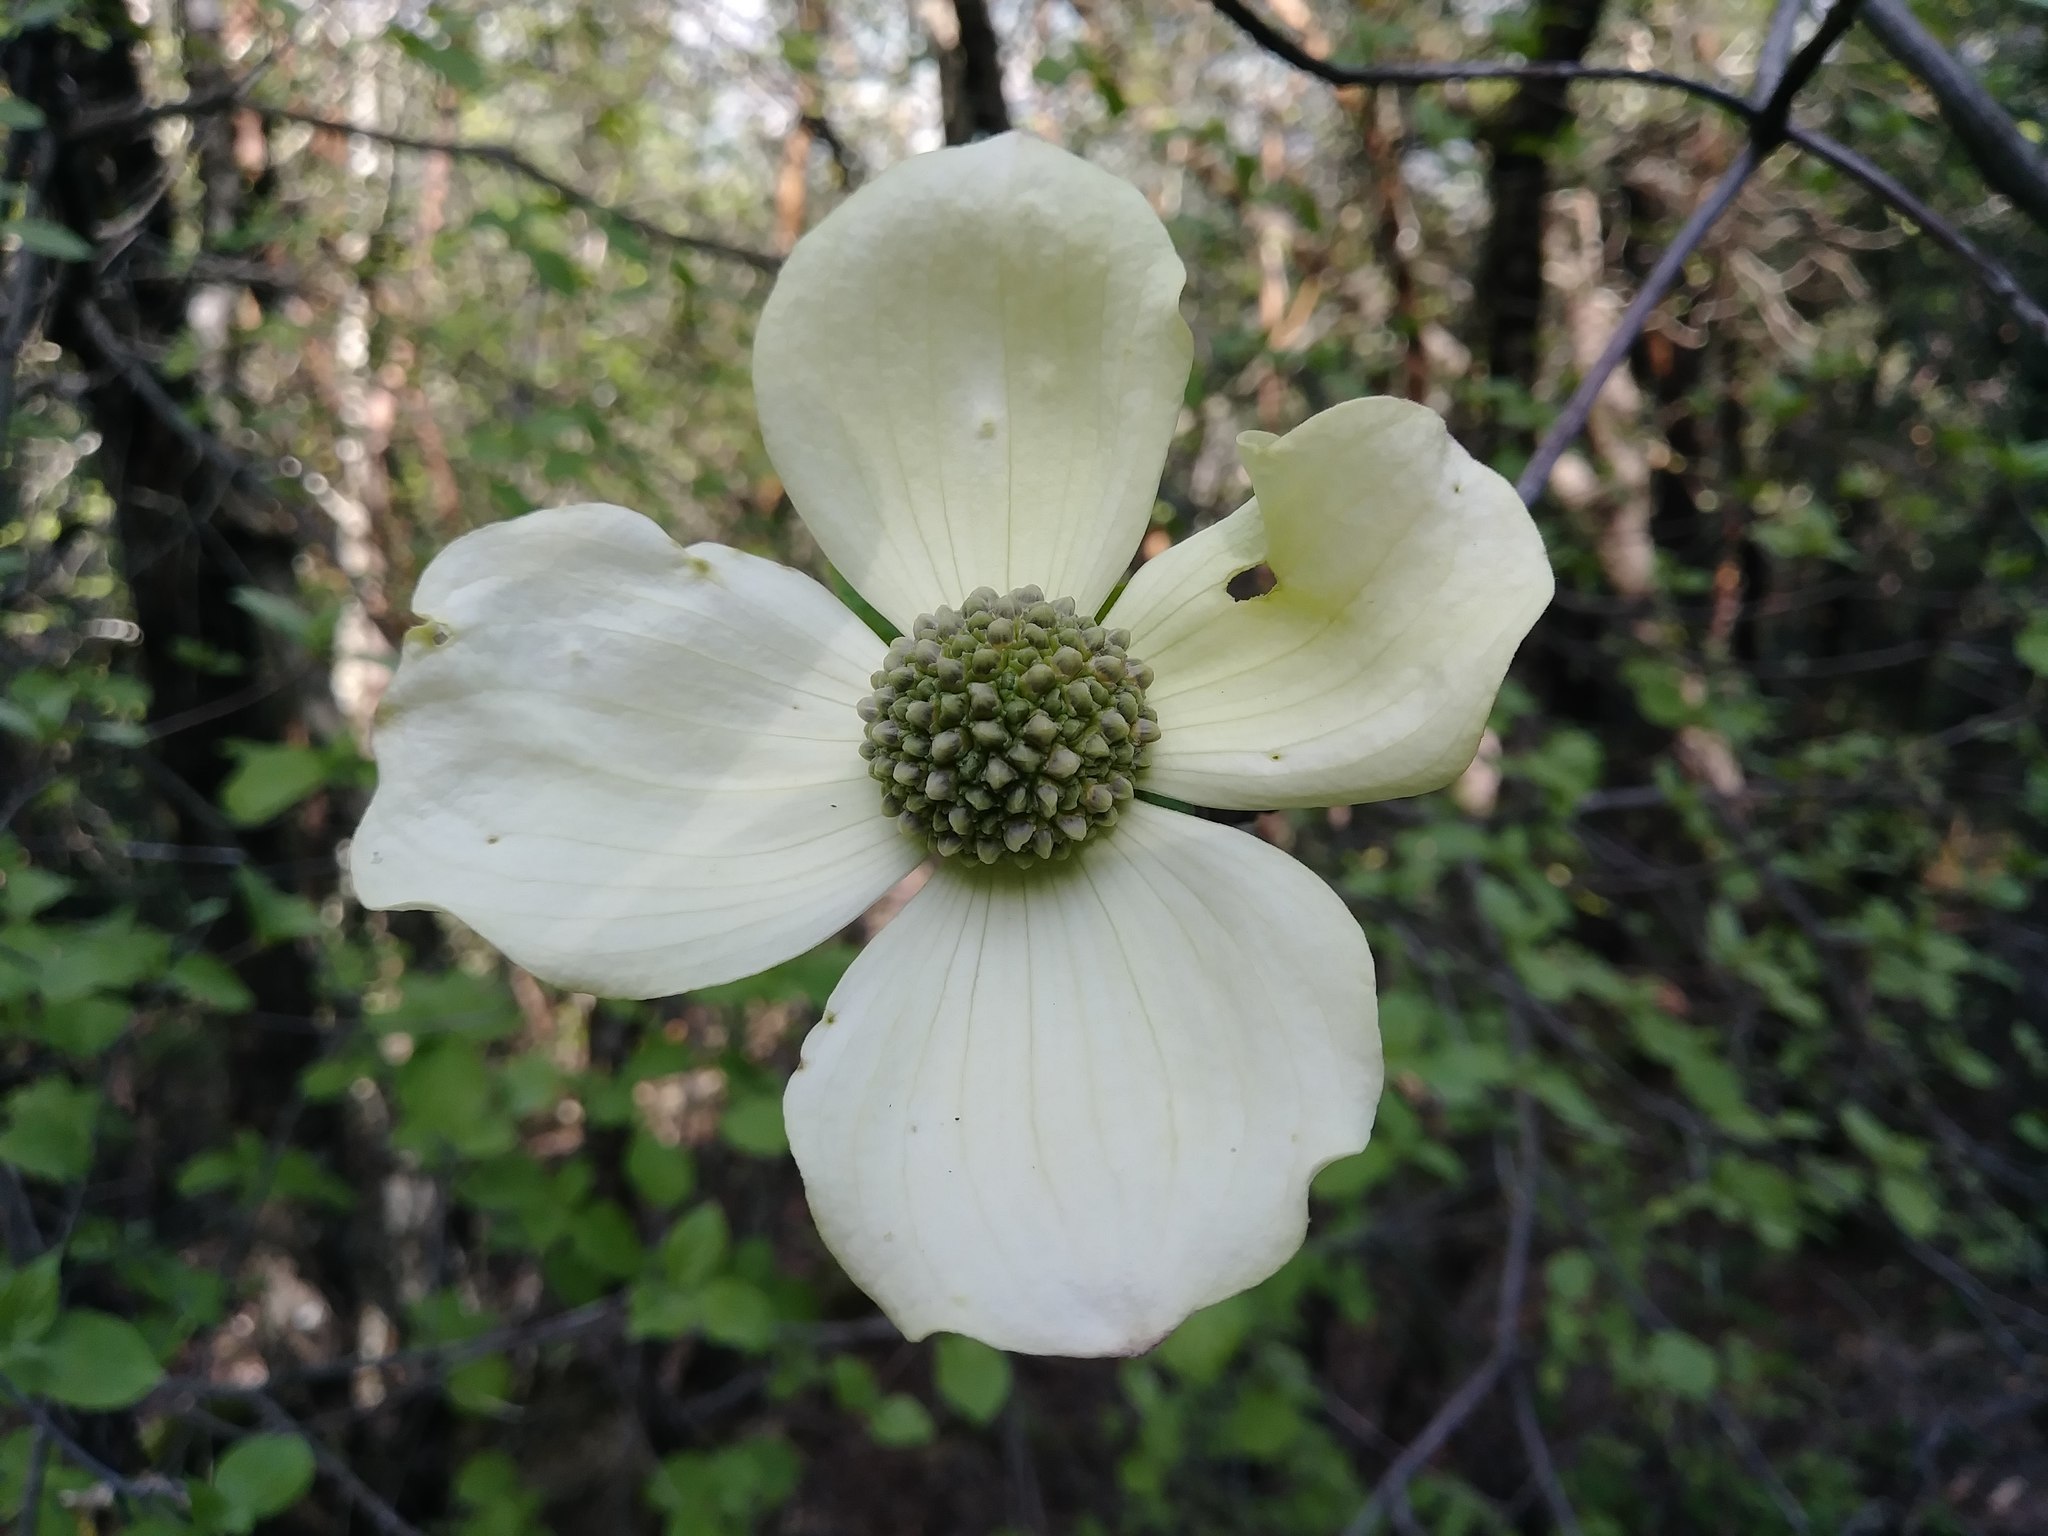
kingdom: Plantae
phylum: Tracheophyta
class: Magnoliopsida
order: Cornales
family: Cornaceae
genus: Cornus
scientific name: Cornus nuttallii
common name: Pacific dogwood
